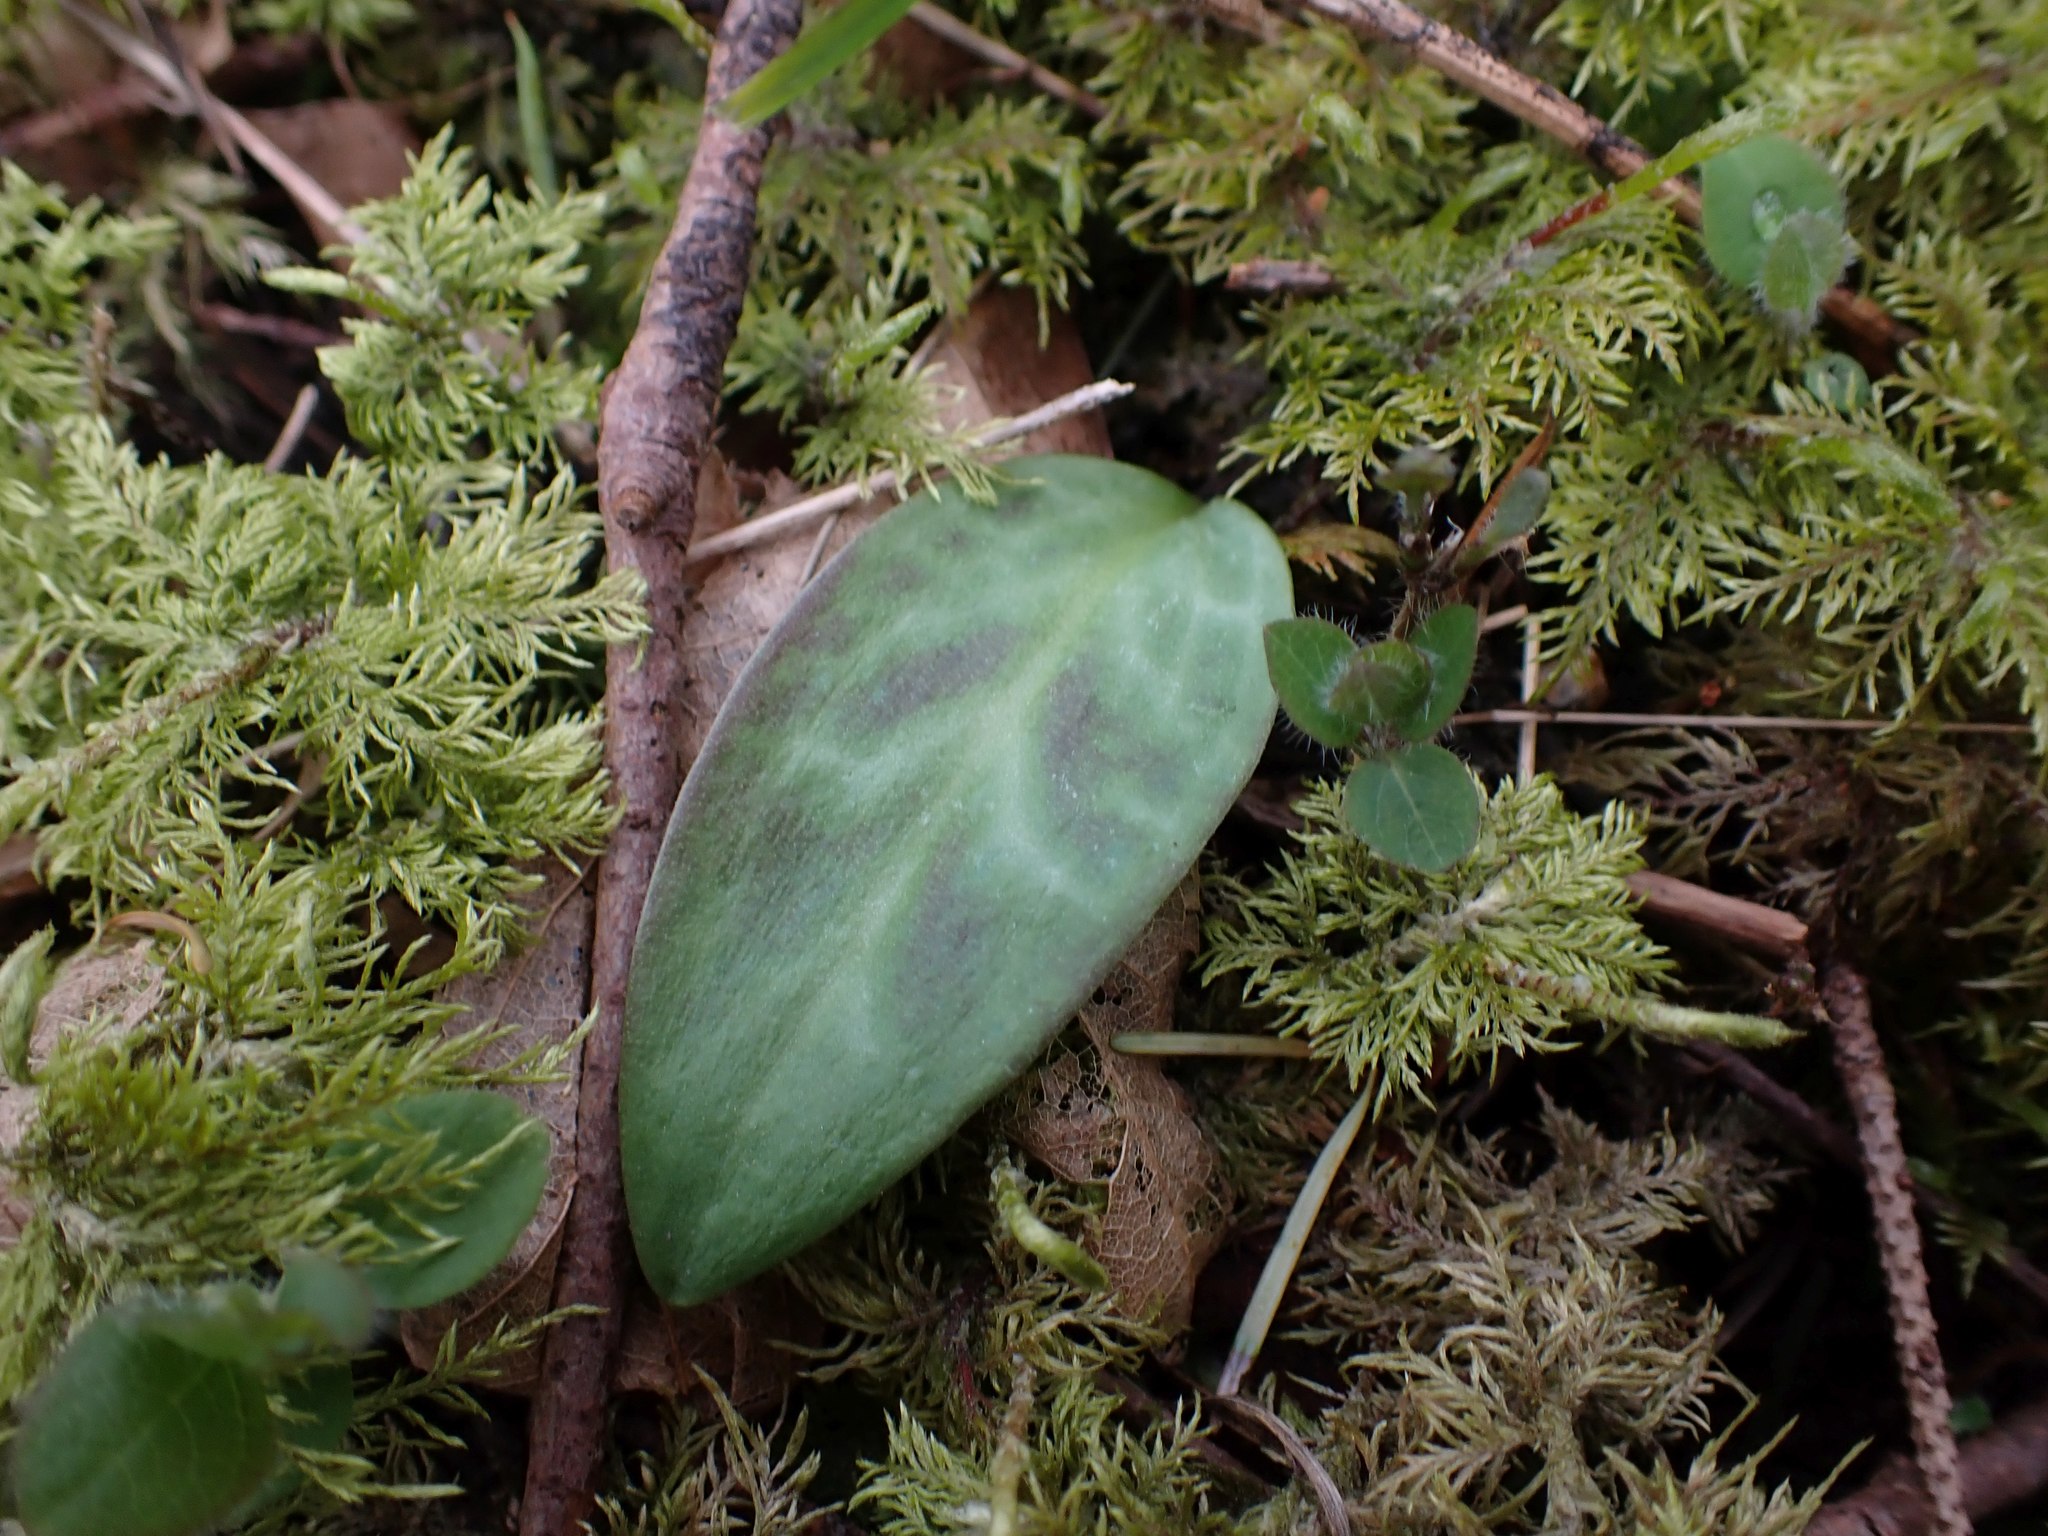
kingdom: Plantae
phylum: Tracheophyta
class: Liliopsida
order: Liliales
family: Liliaceae
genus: Erythronium
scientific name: Erythronium oregonum
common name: Giant adder's-tongue
